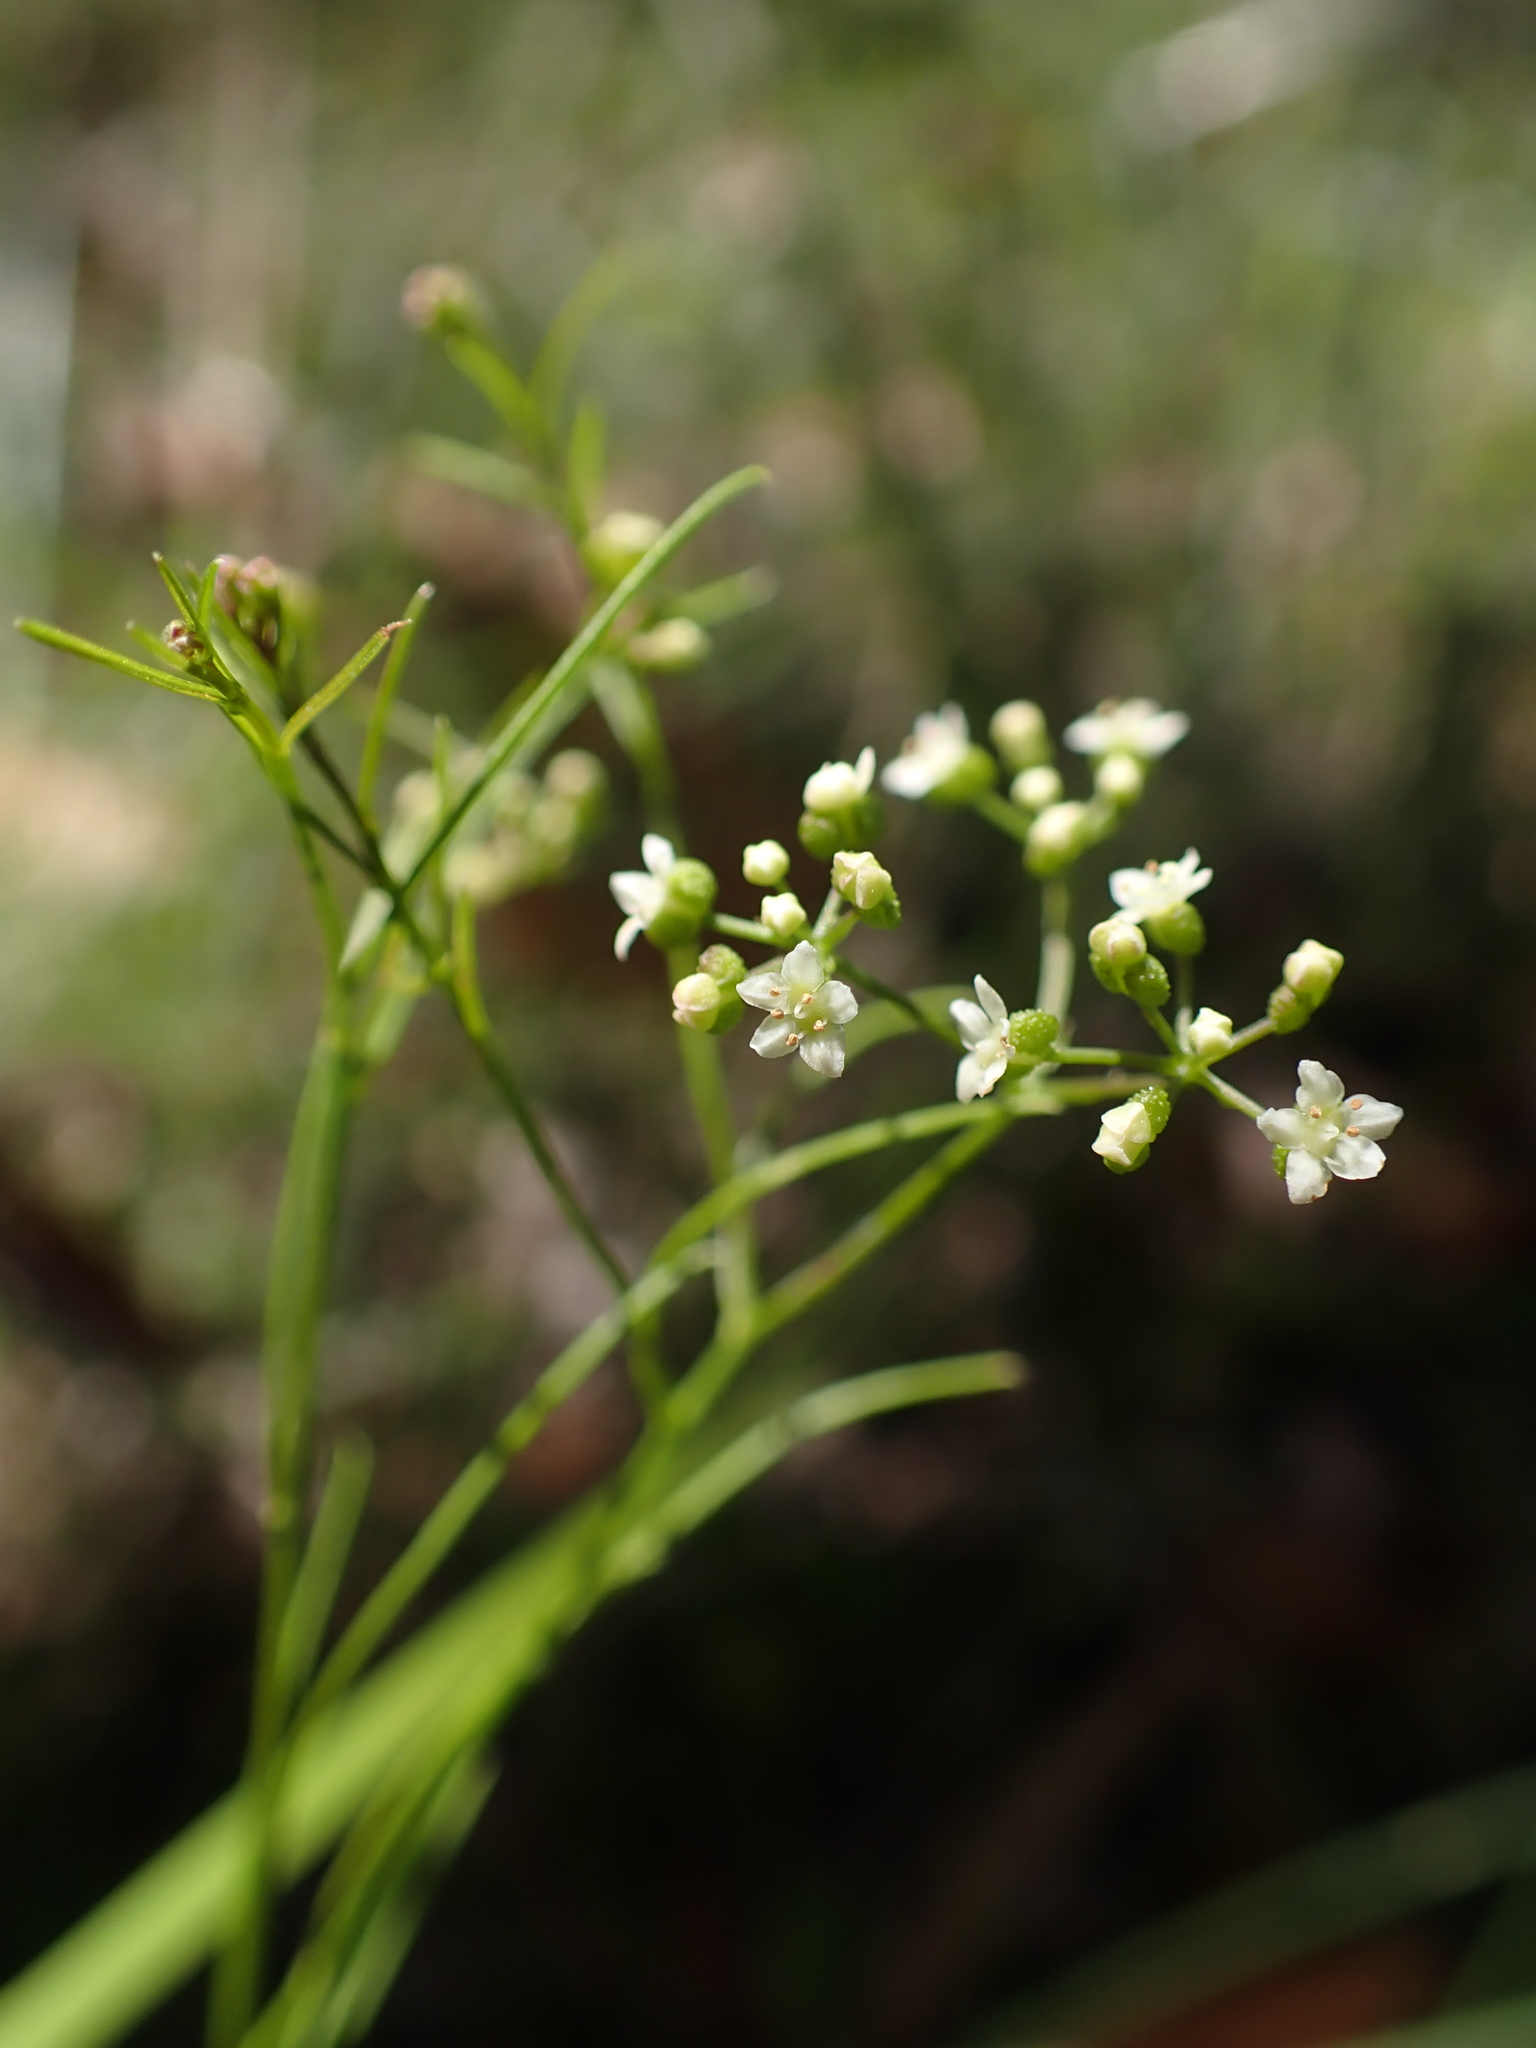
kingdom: Plantae
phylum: Tracheophyta
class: Magnoliopsida
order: Apiales
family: Apiaceae
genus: Platysace
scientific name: Platysace heterophylla
